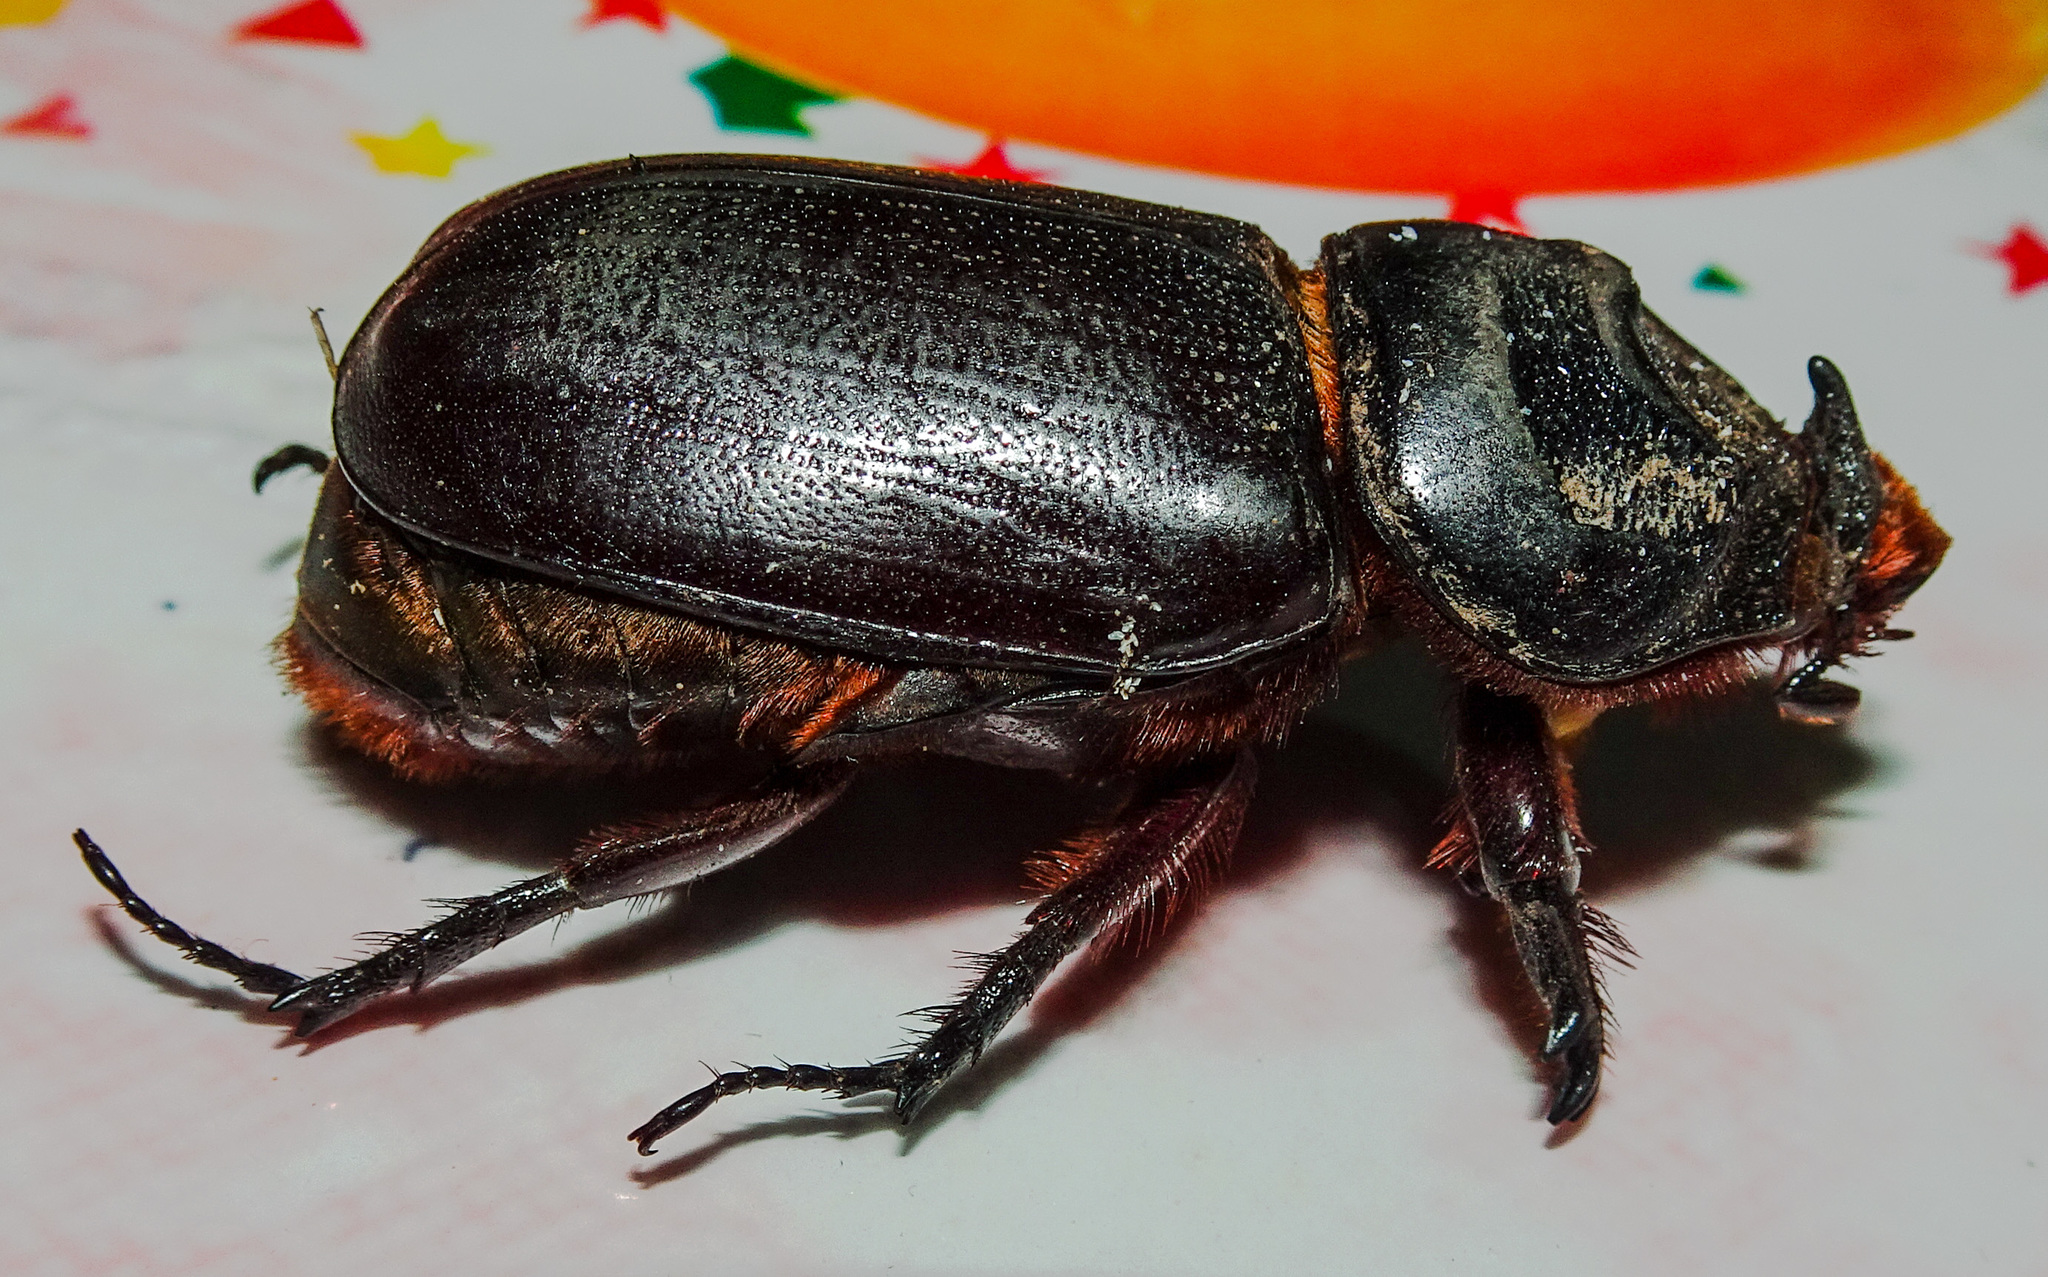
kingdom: Animalia
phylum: Arthropoda
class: Insecta
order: Coleoptera
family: Scarabaeidae
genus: Oryctes
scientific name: Oryctes rhinoceros
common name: Coconut rhinoceros beetle
